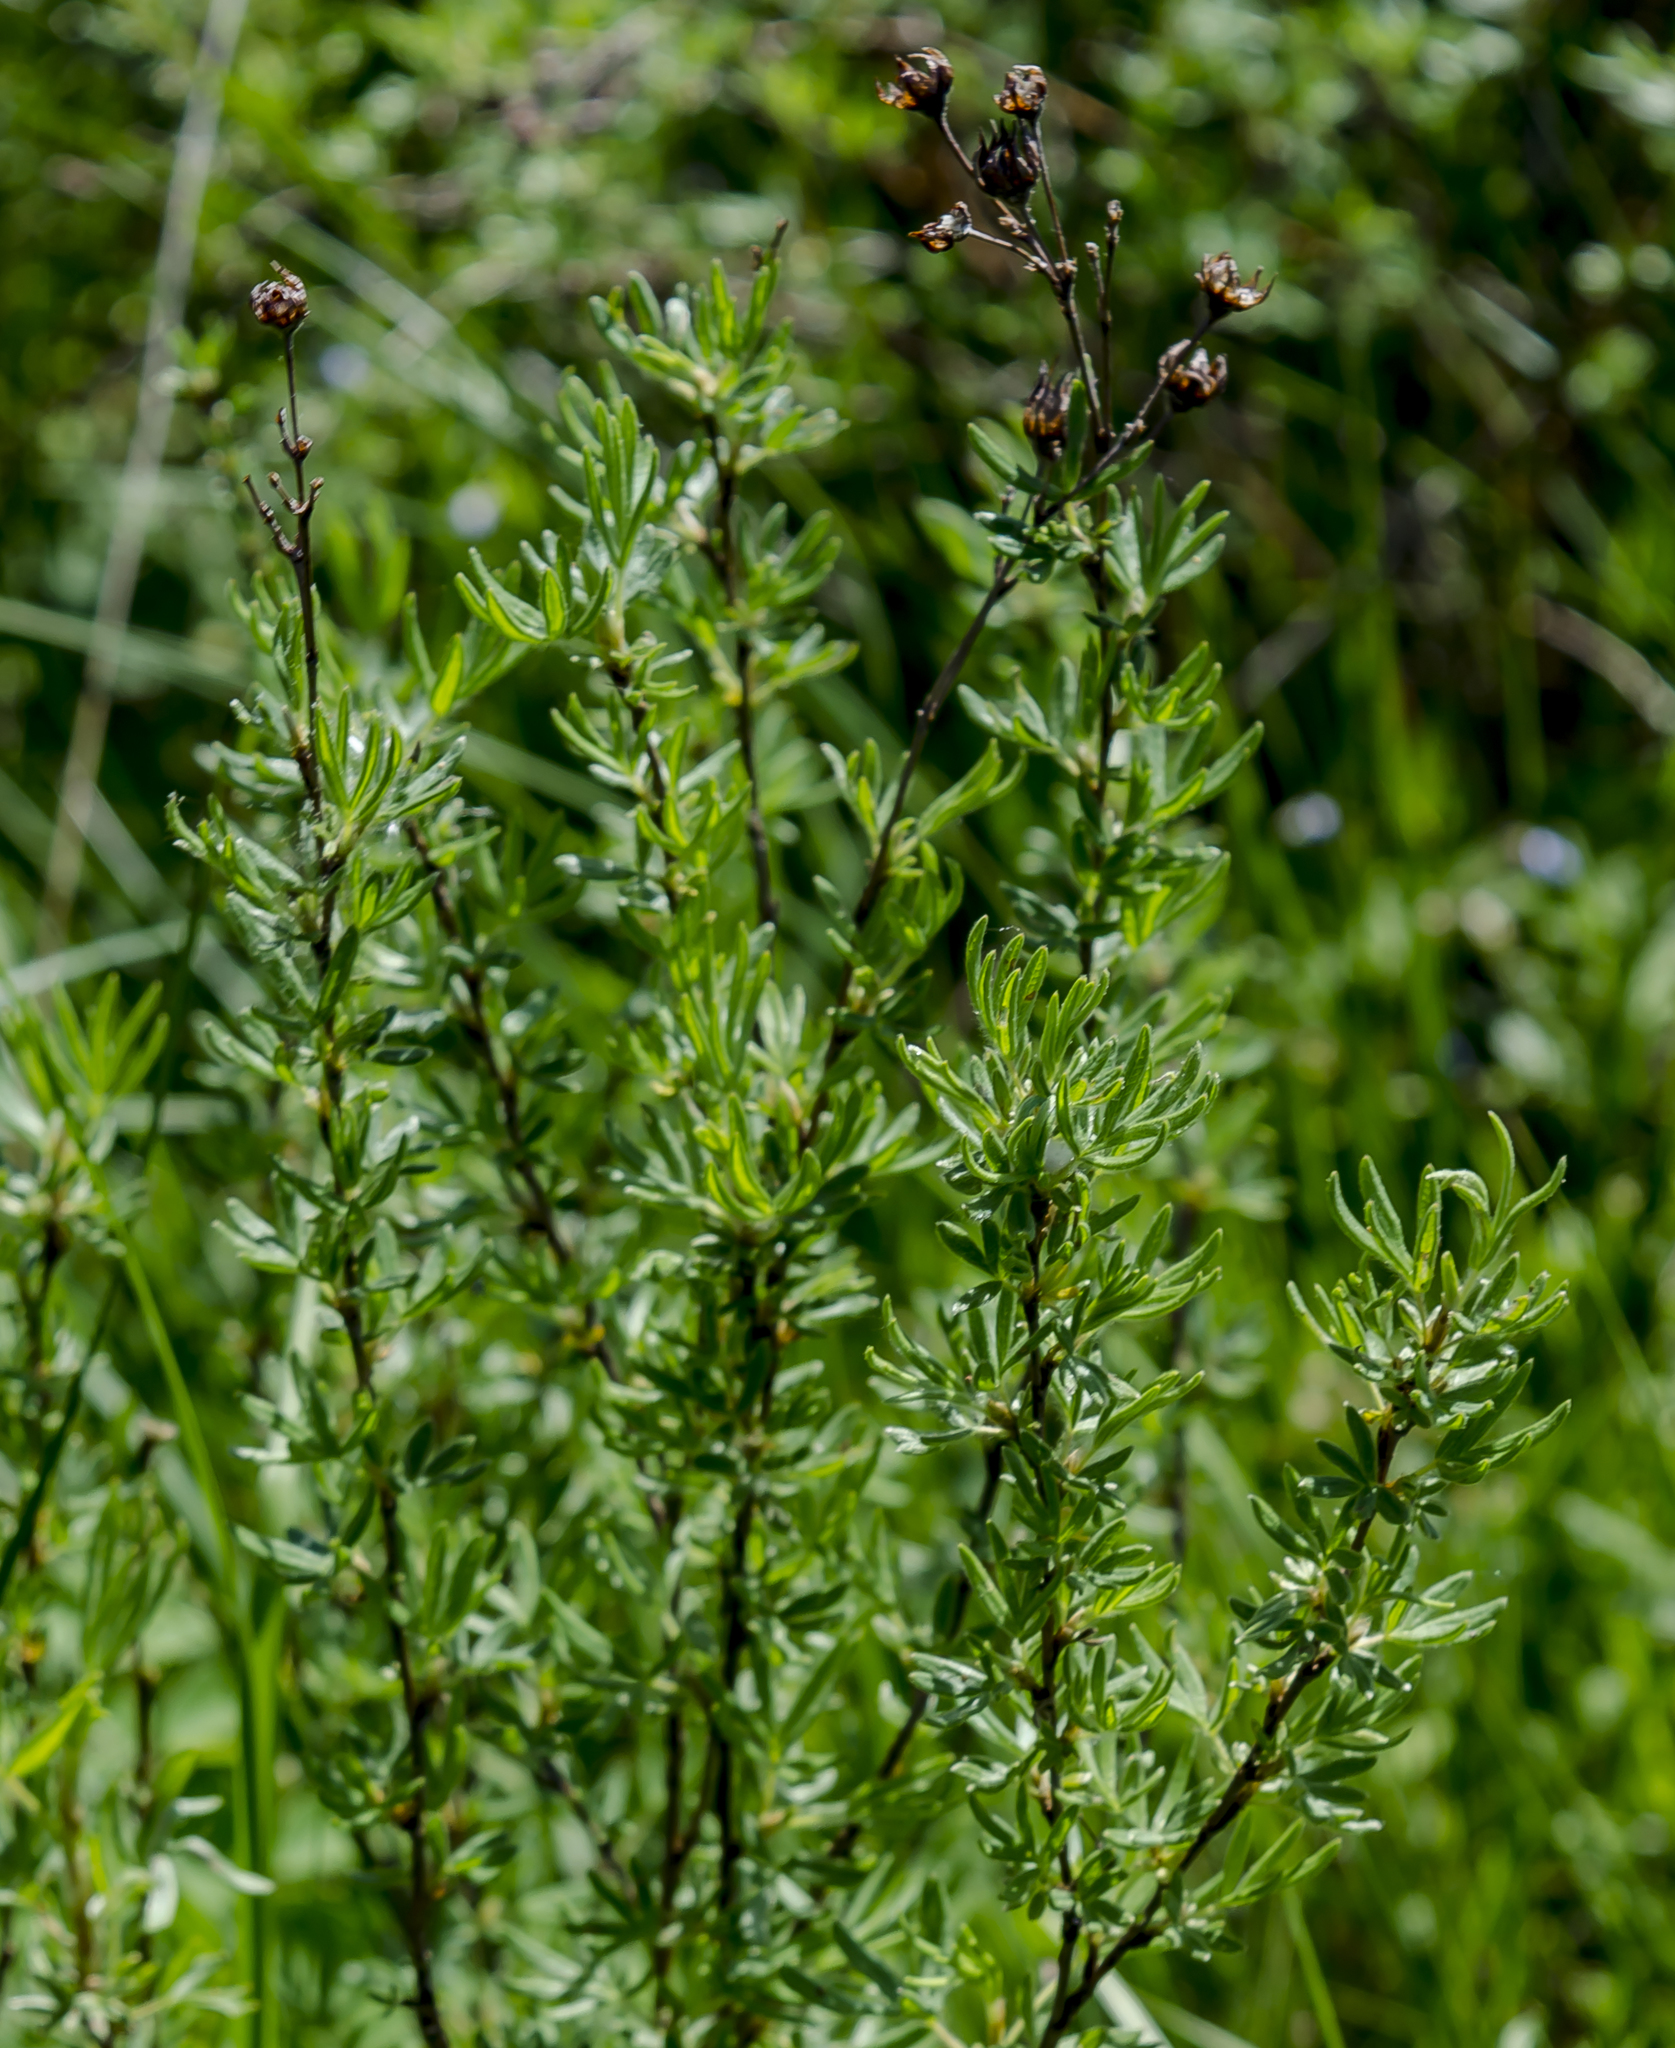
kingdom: Plantae
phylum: Tracheophyta
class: Magnoliopsida
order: Rosales
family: Rosaceae
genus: Dasiphora
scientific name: Dasiphora fruticosa
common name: Shrubby cinquefoil
